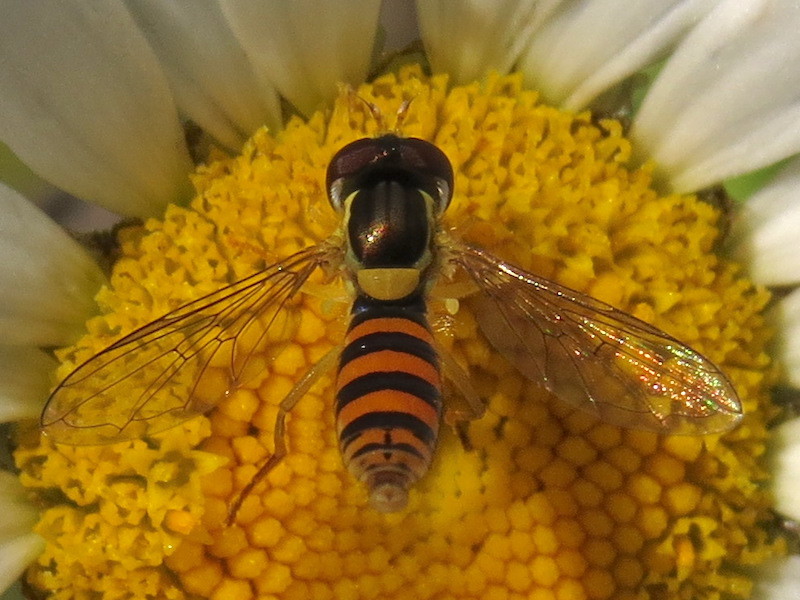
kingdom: Animalia
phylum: Arthropoda
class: Insecta
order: Diptera
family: Syrphidae
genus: Sphaerophoria
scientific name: Sphaerophoria
